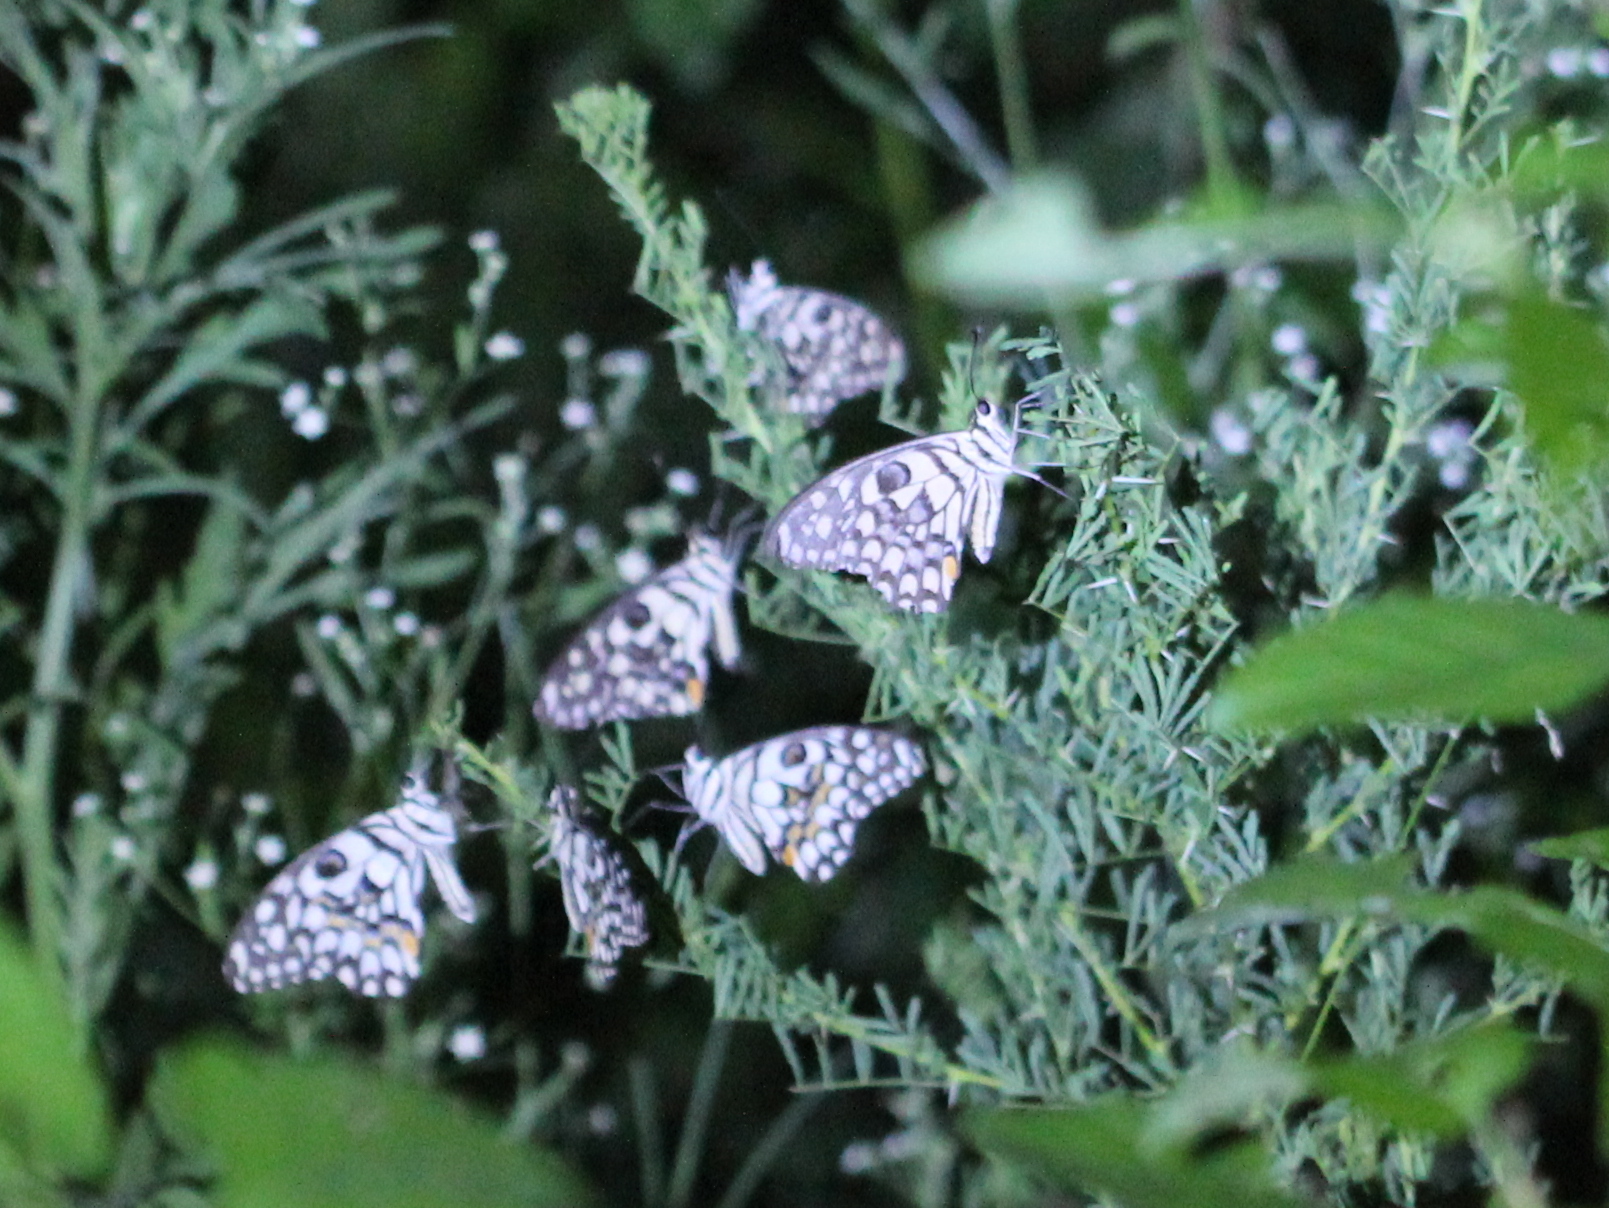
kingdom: Animalia
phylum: Arthropoda
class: Insecta
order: Lepidoptera
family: Papilionidae
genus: Papilio
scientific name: Papilio demoleus
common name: Lime butterfly
